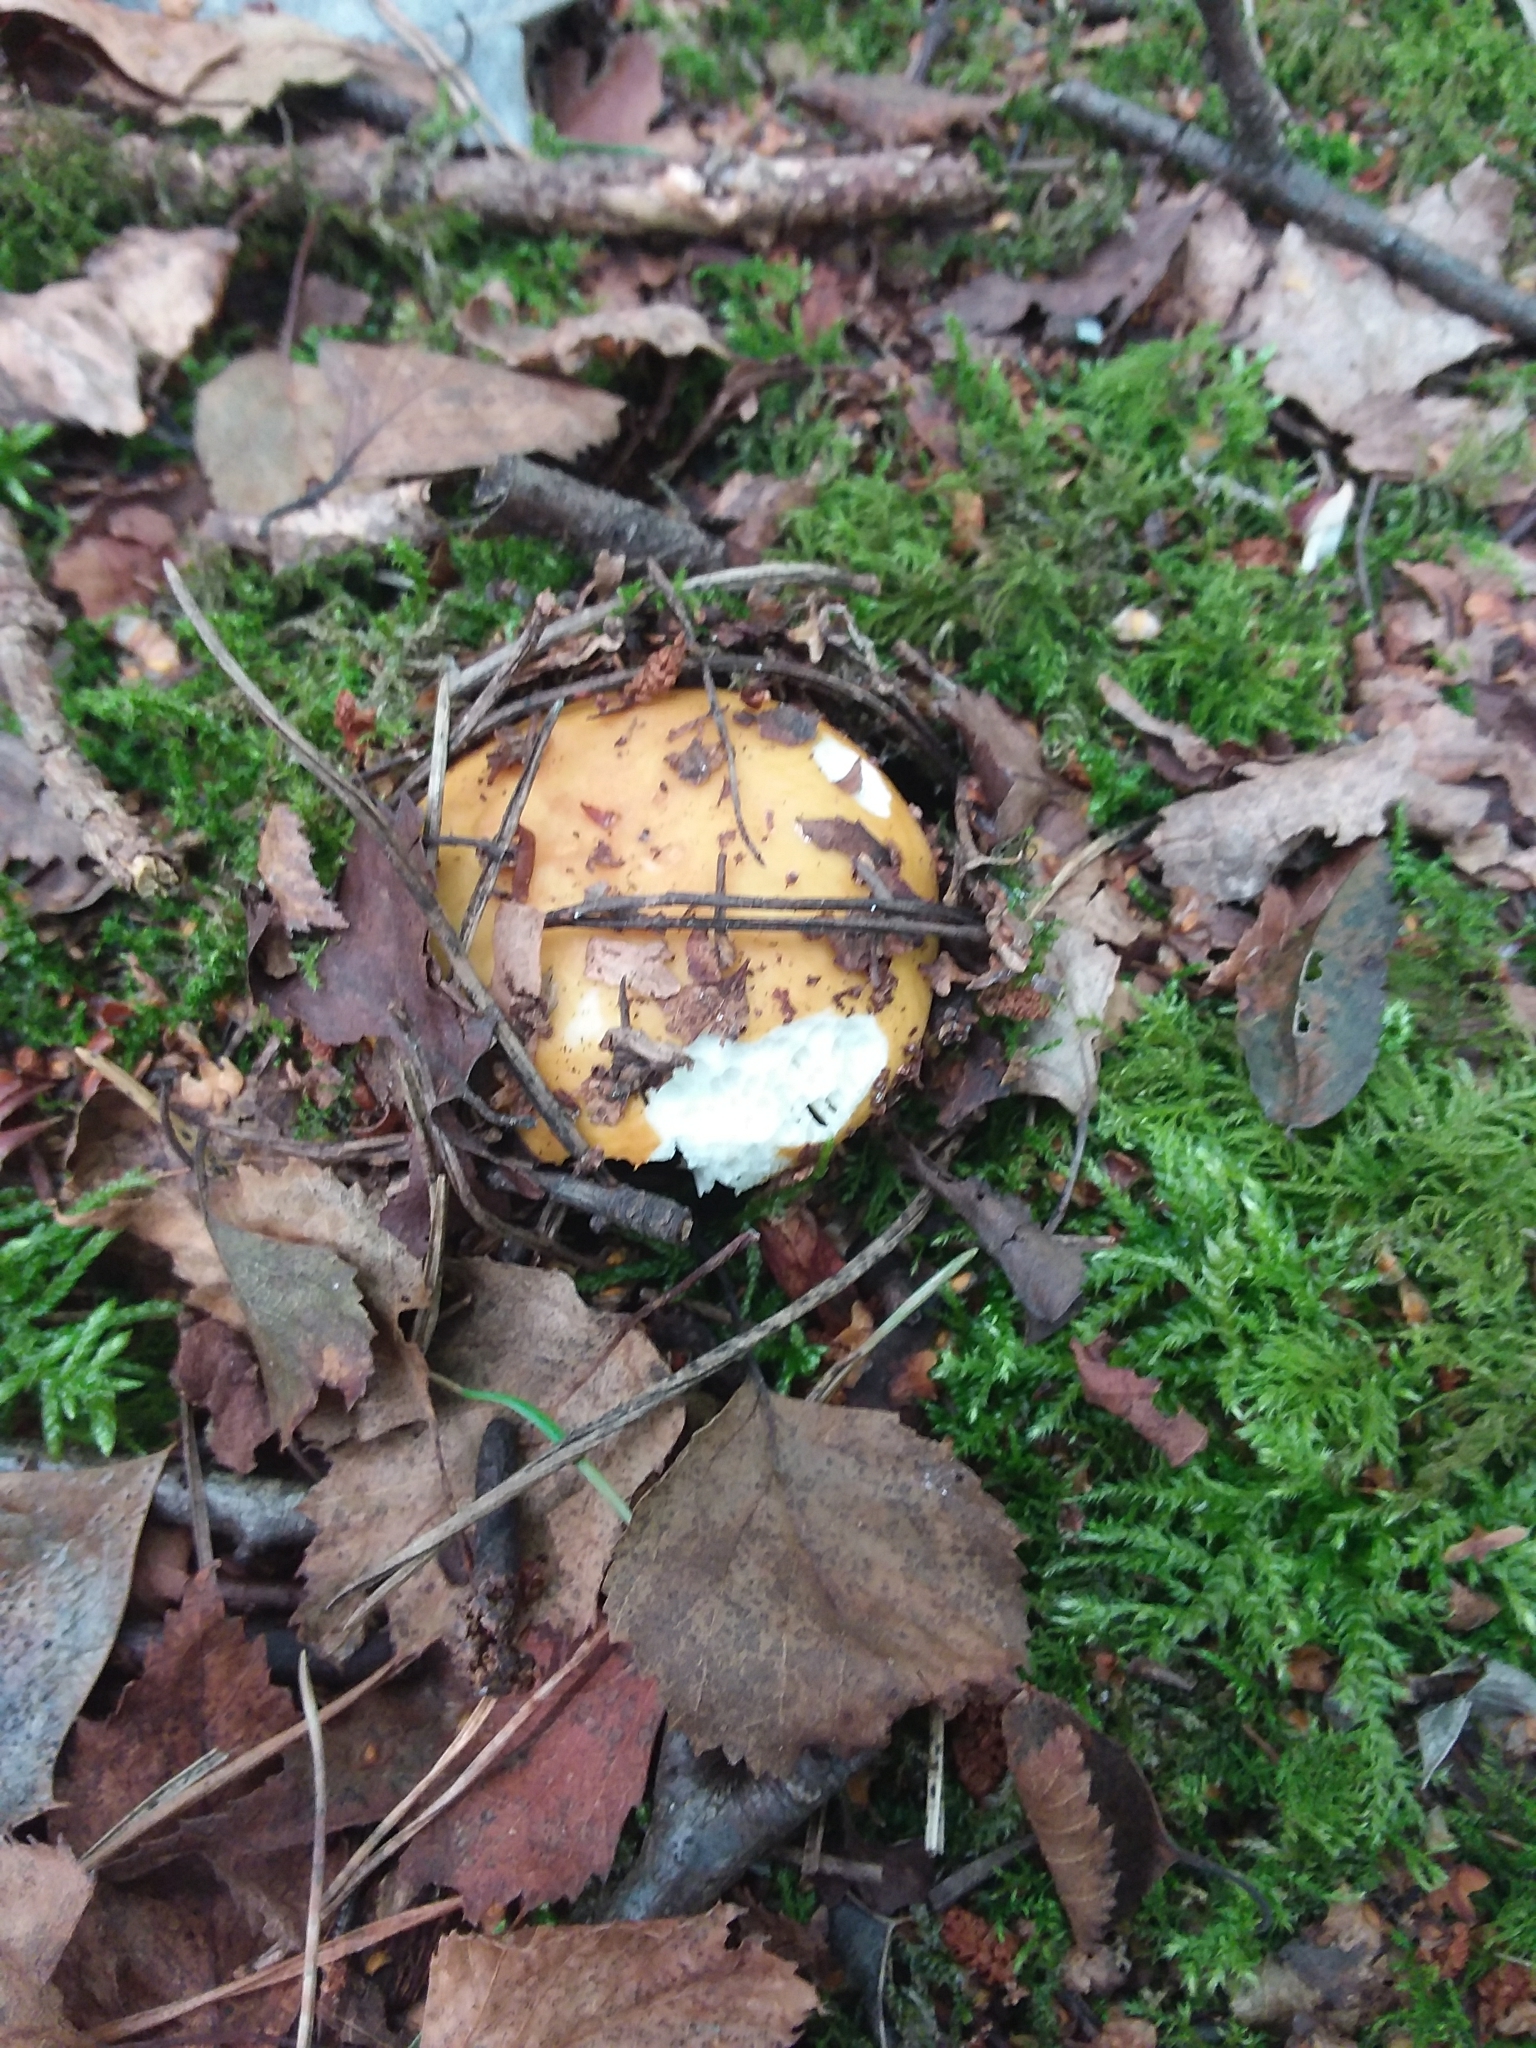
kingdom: Fungi
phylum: Basidiomycota
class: Agaricomycetes
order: Russulales
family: Russulaceae
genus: Russula
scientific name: Russula ochroleuca
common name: Common yellow russula
